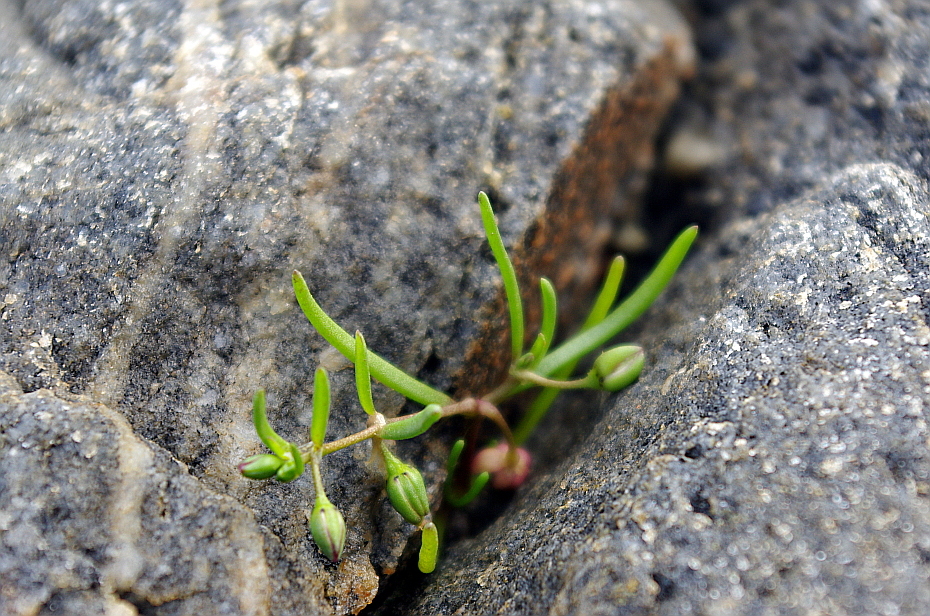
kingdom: Plantae
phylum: Tracheophyta
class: Magnoliopsida
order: Caryophyllales
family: Caryophyllaceae
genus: Spergularia
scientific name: Spergularia marina
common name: Lesser sea-spurrey
